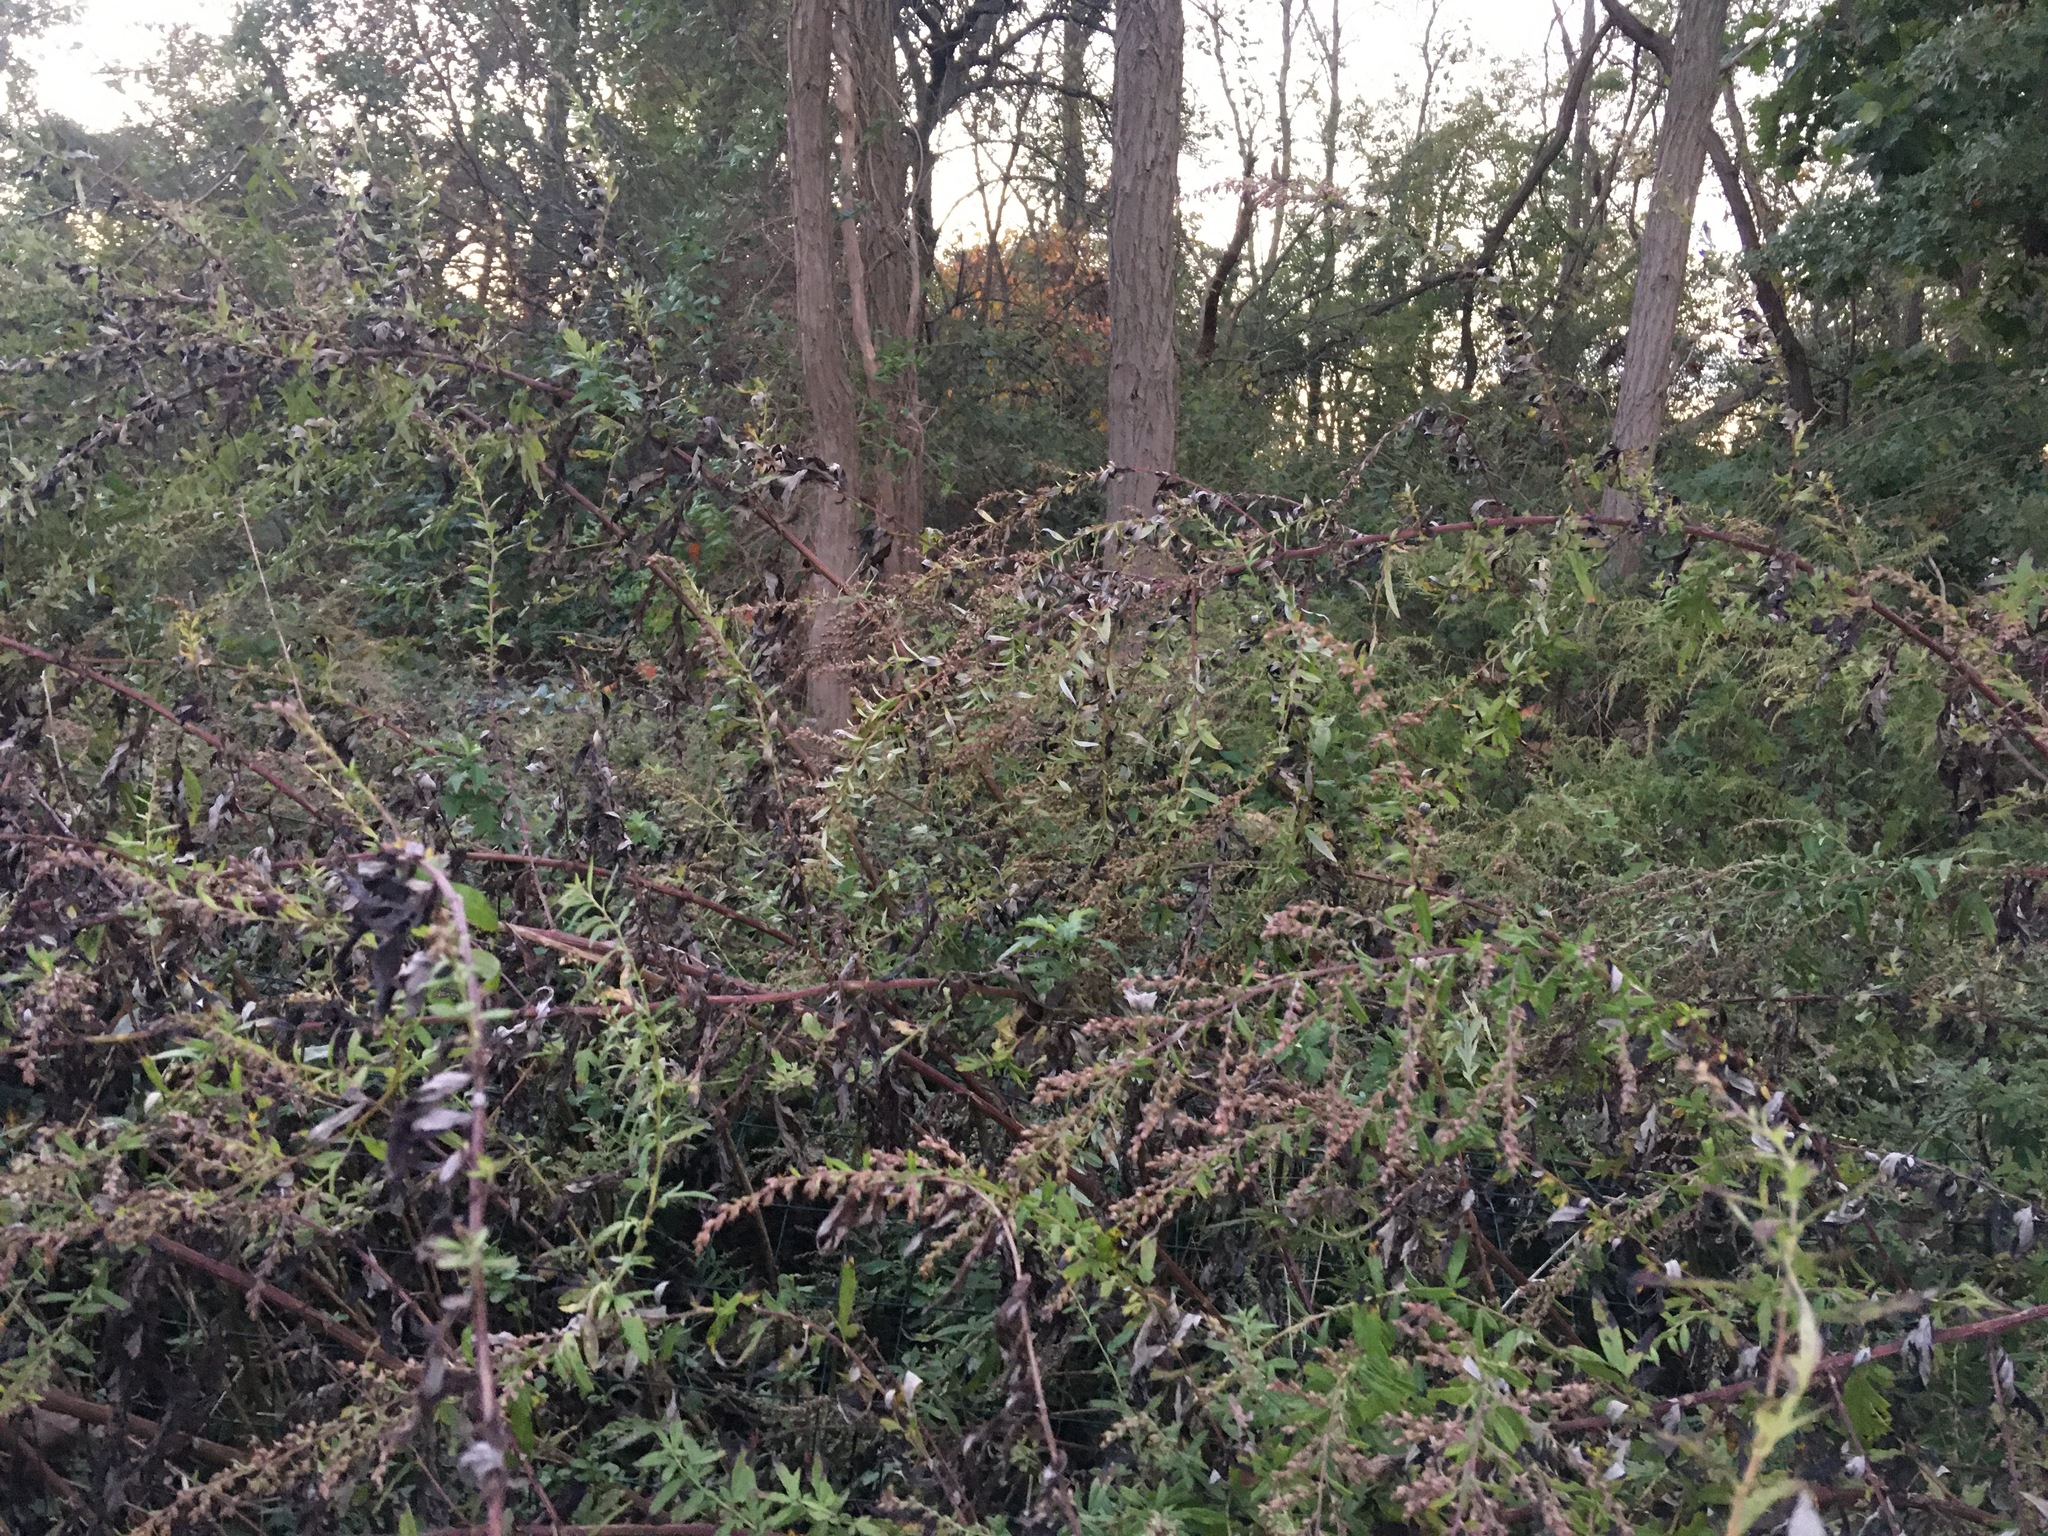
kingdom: Plantae
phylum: Tracheophyta
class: Magnoliopsida
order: Asterales
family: Asteraceae
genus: Artemisia
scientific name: Artemisia vulgaris
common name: Mugwort
